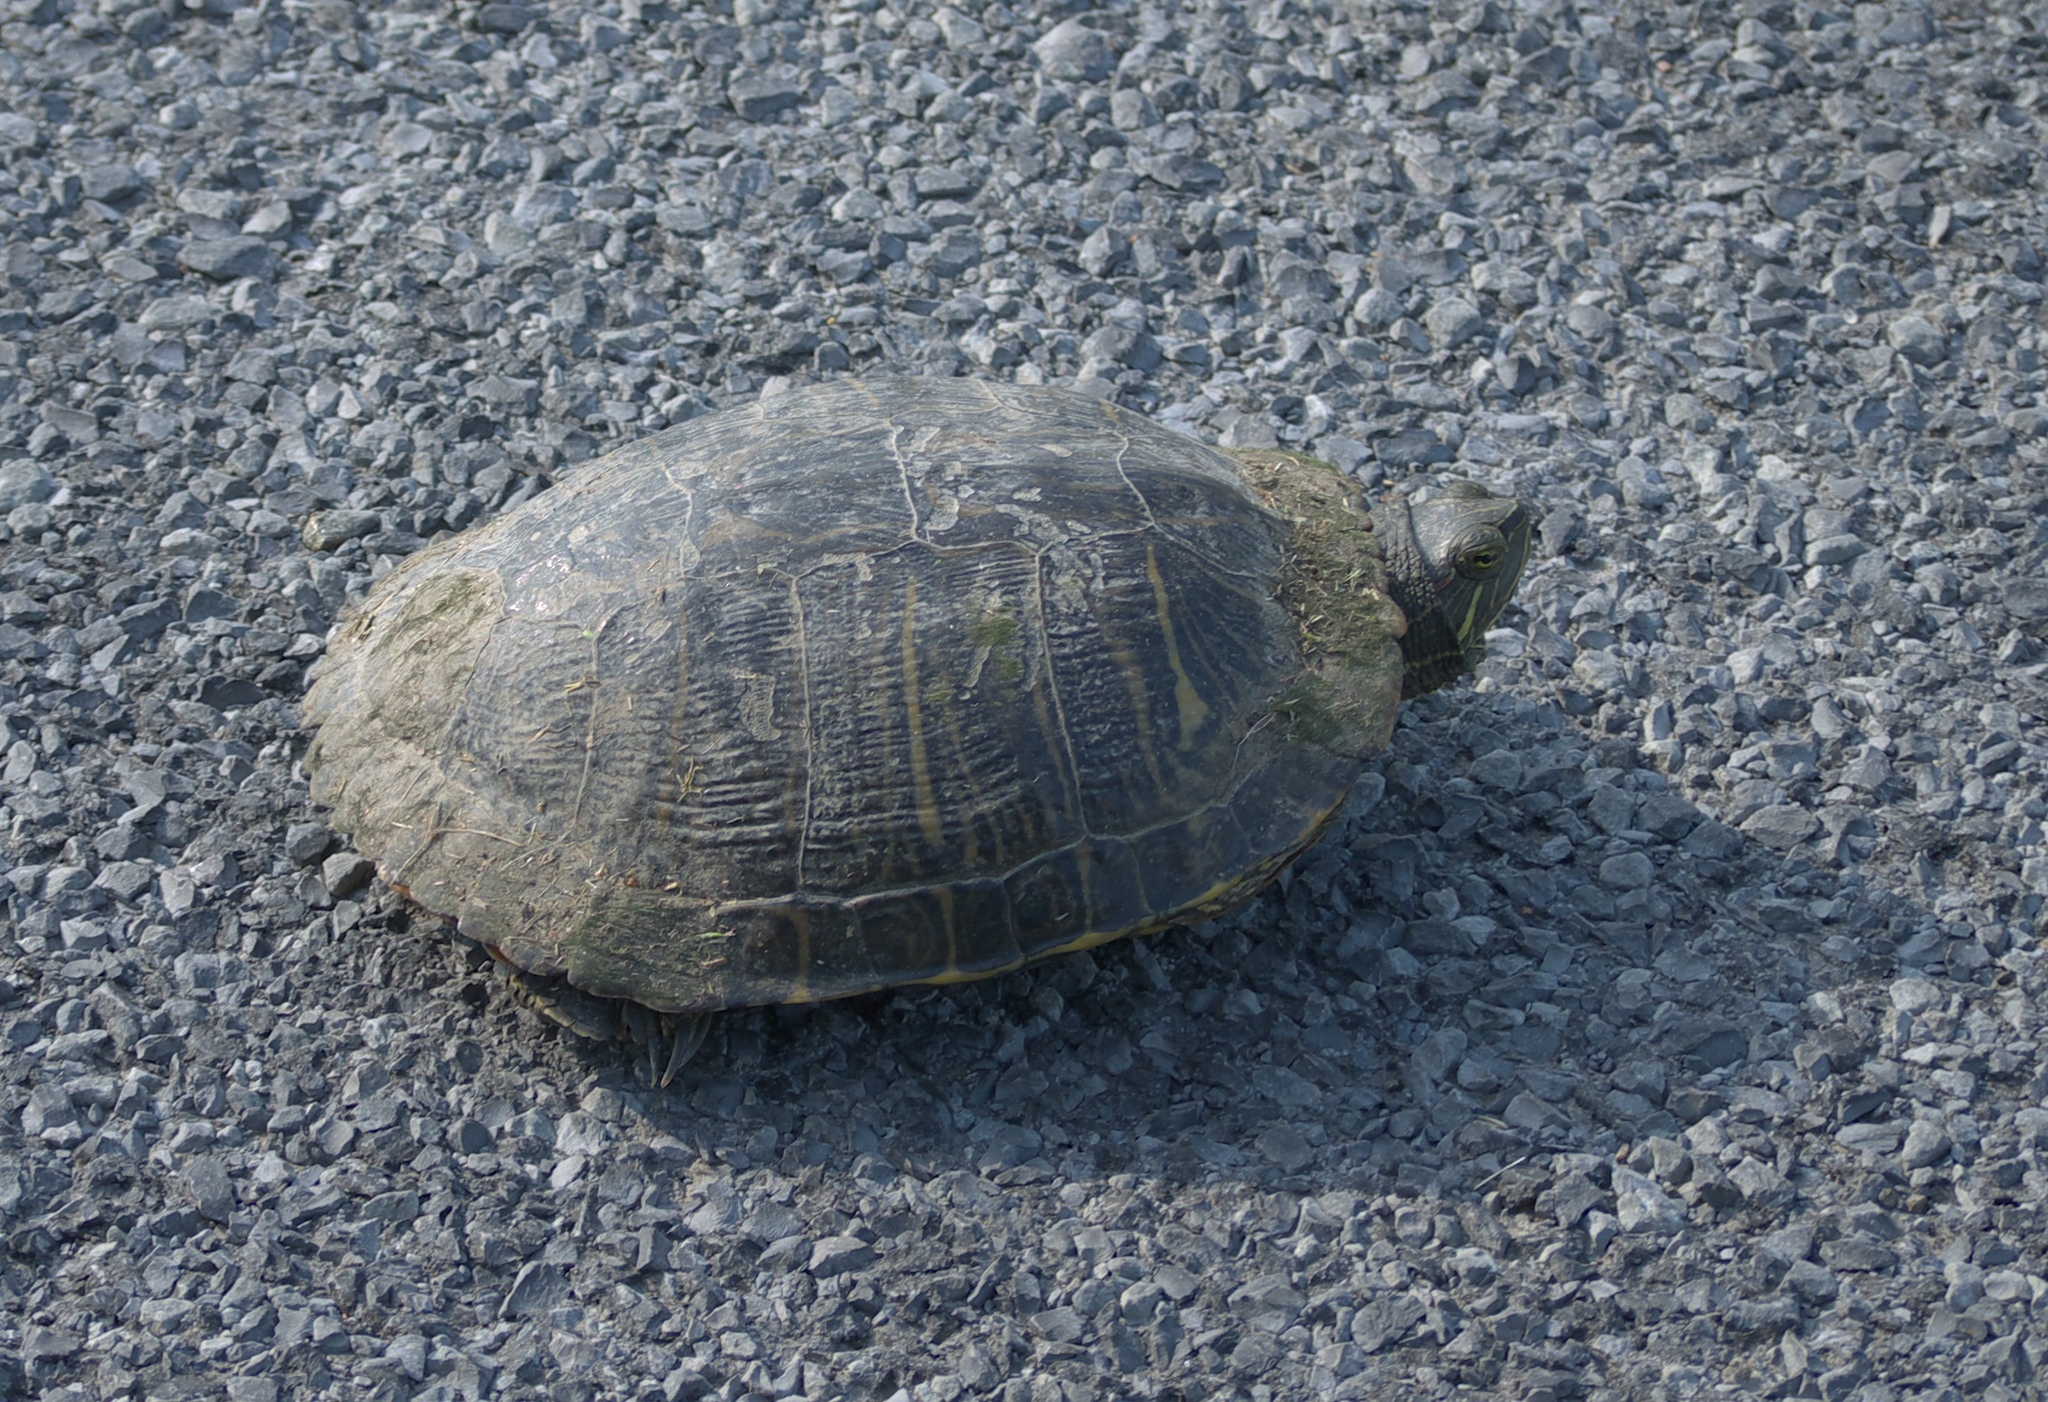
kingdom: Animalia
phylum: Chordata
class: Testudines
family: Emydidae
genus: Trachemys
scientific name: Trachemys scripta
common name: Slider
